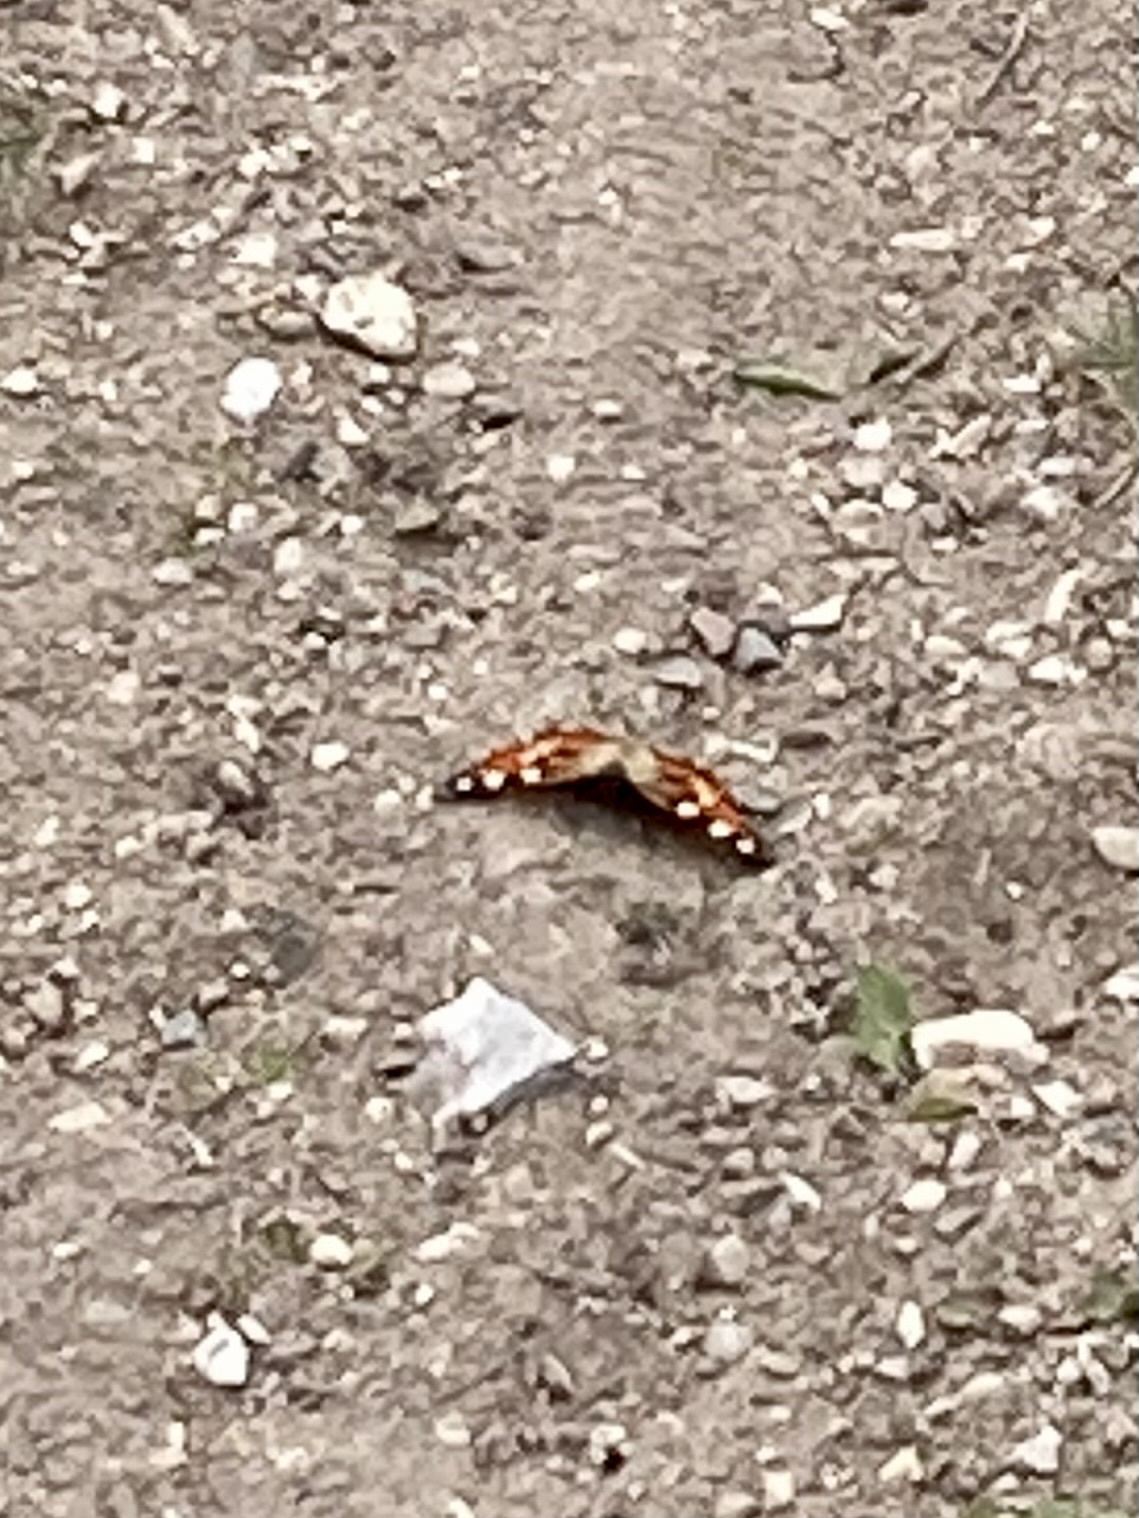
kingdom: Animalia
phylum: Arthropoda
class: Insecta
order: Lepidoptera
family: Nymphalidae
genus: Aglais
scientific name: Aglais urticae
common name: Small tortoiseshell
